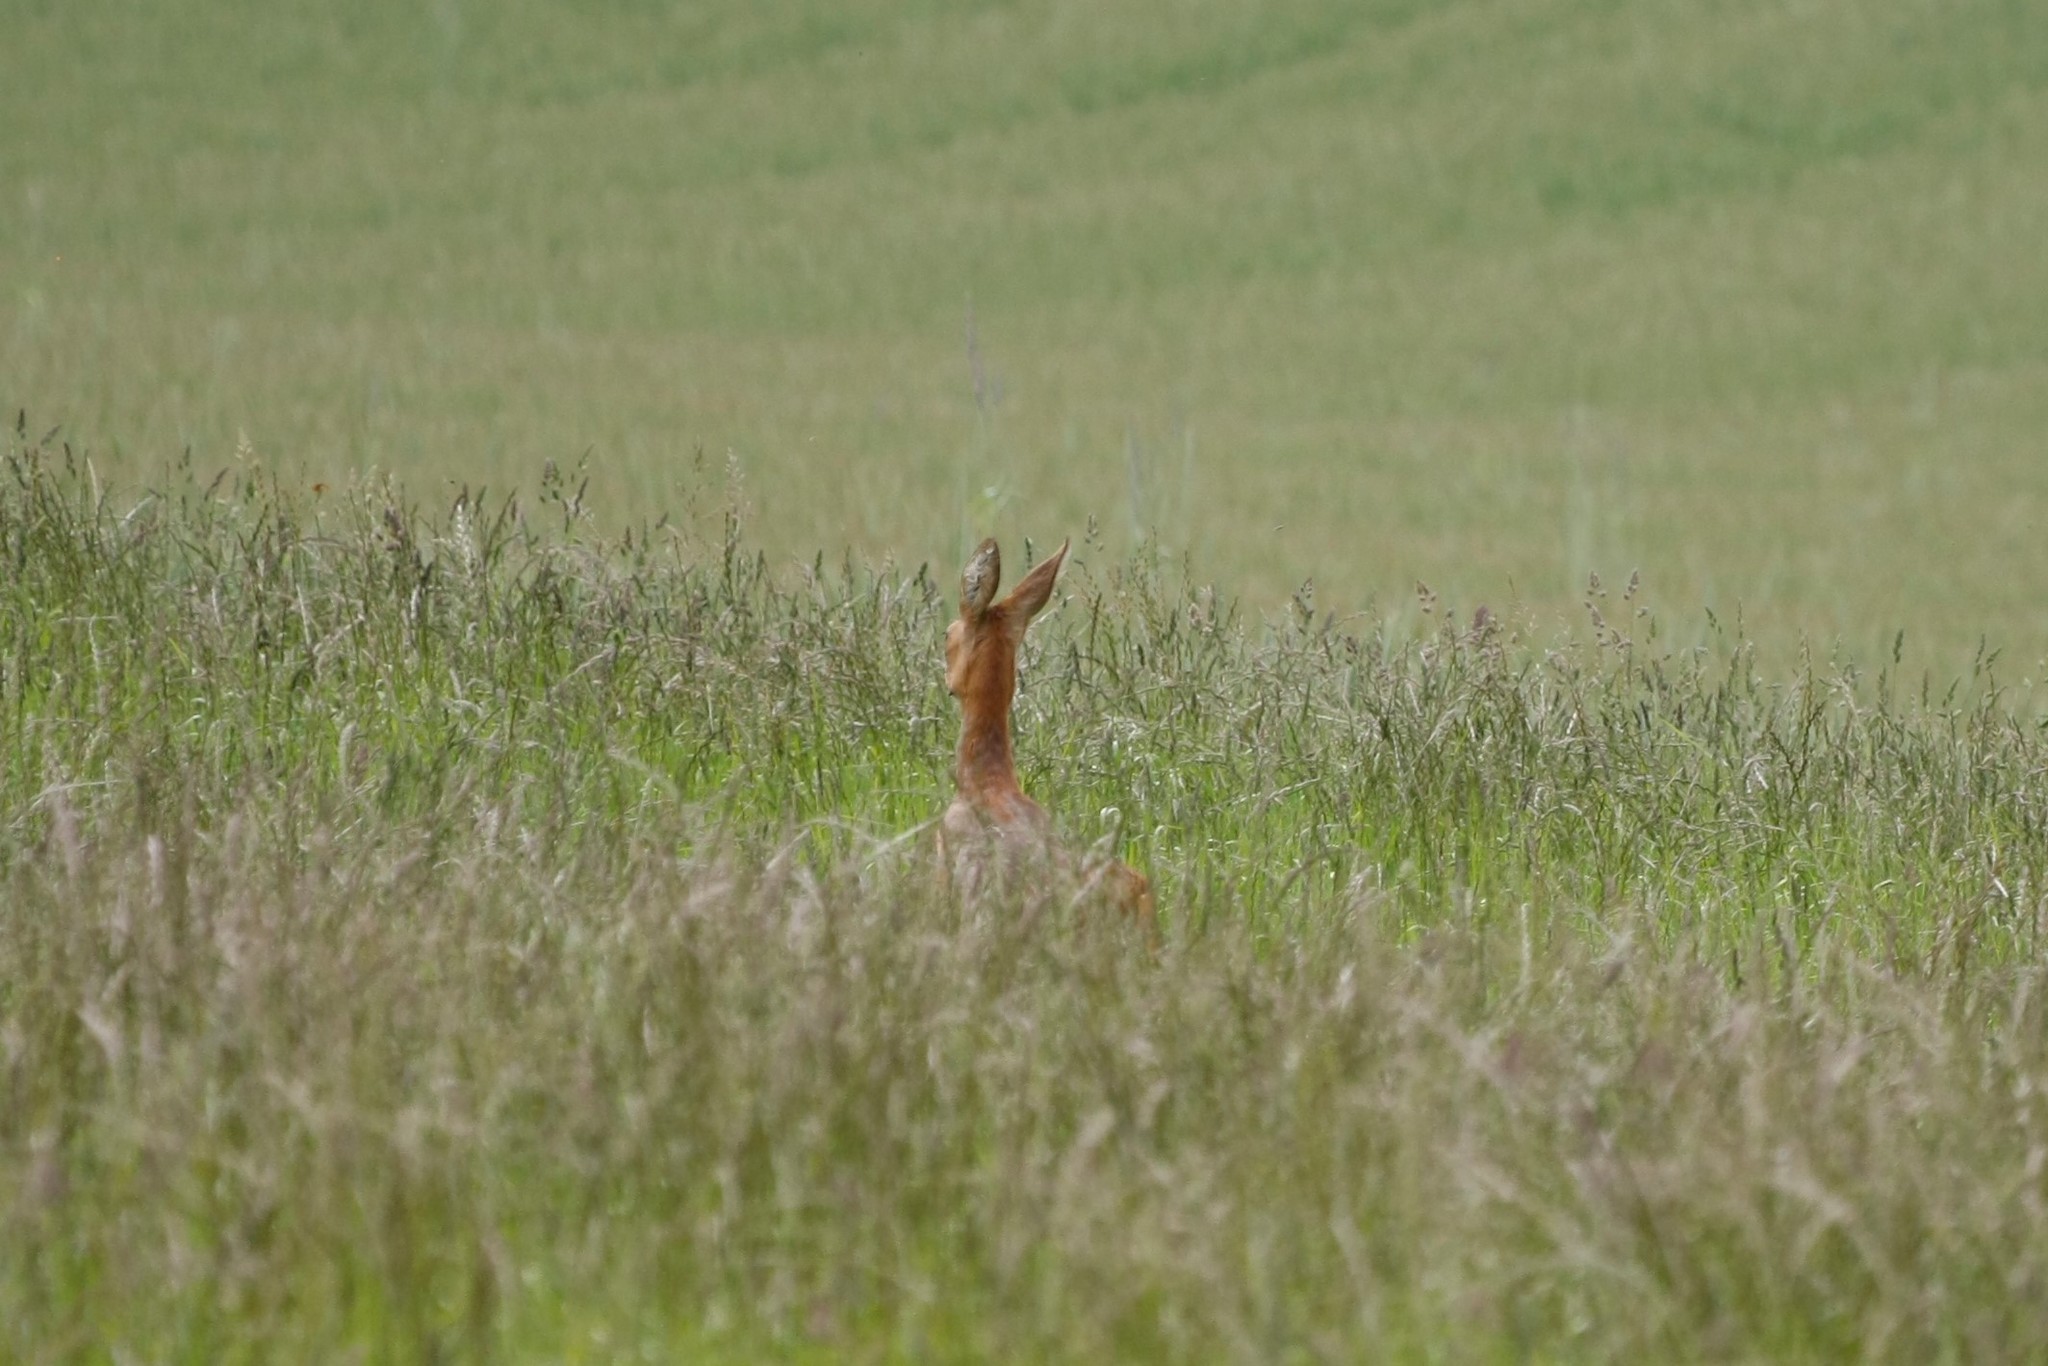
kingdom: Animalia
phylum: Chordata
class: Mammalia
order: Artiodactyla
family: Cervidae
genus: Capreolus
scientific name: Capreolus capreolus
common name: Western roe deer
